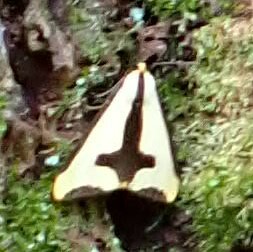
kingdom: Animalia
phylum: Arthropoda
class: Insecta
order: Lepidoptera
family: Erebidae
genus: Haploa
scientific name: Haploa clymene
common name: Clymene moth
